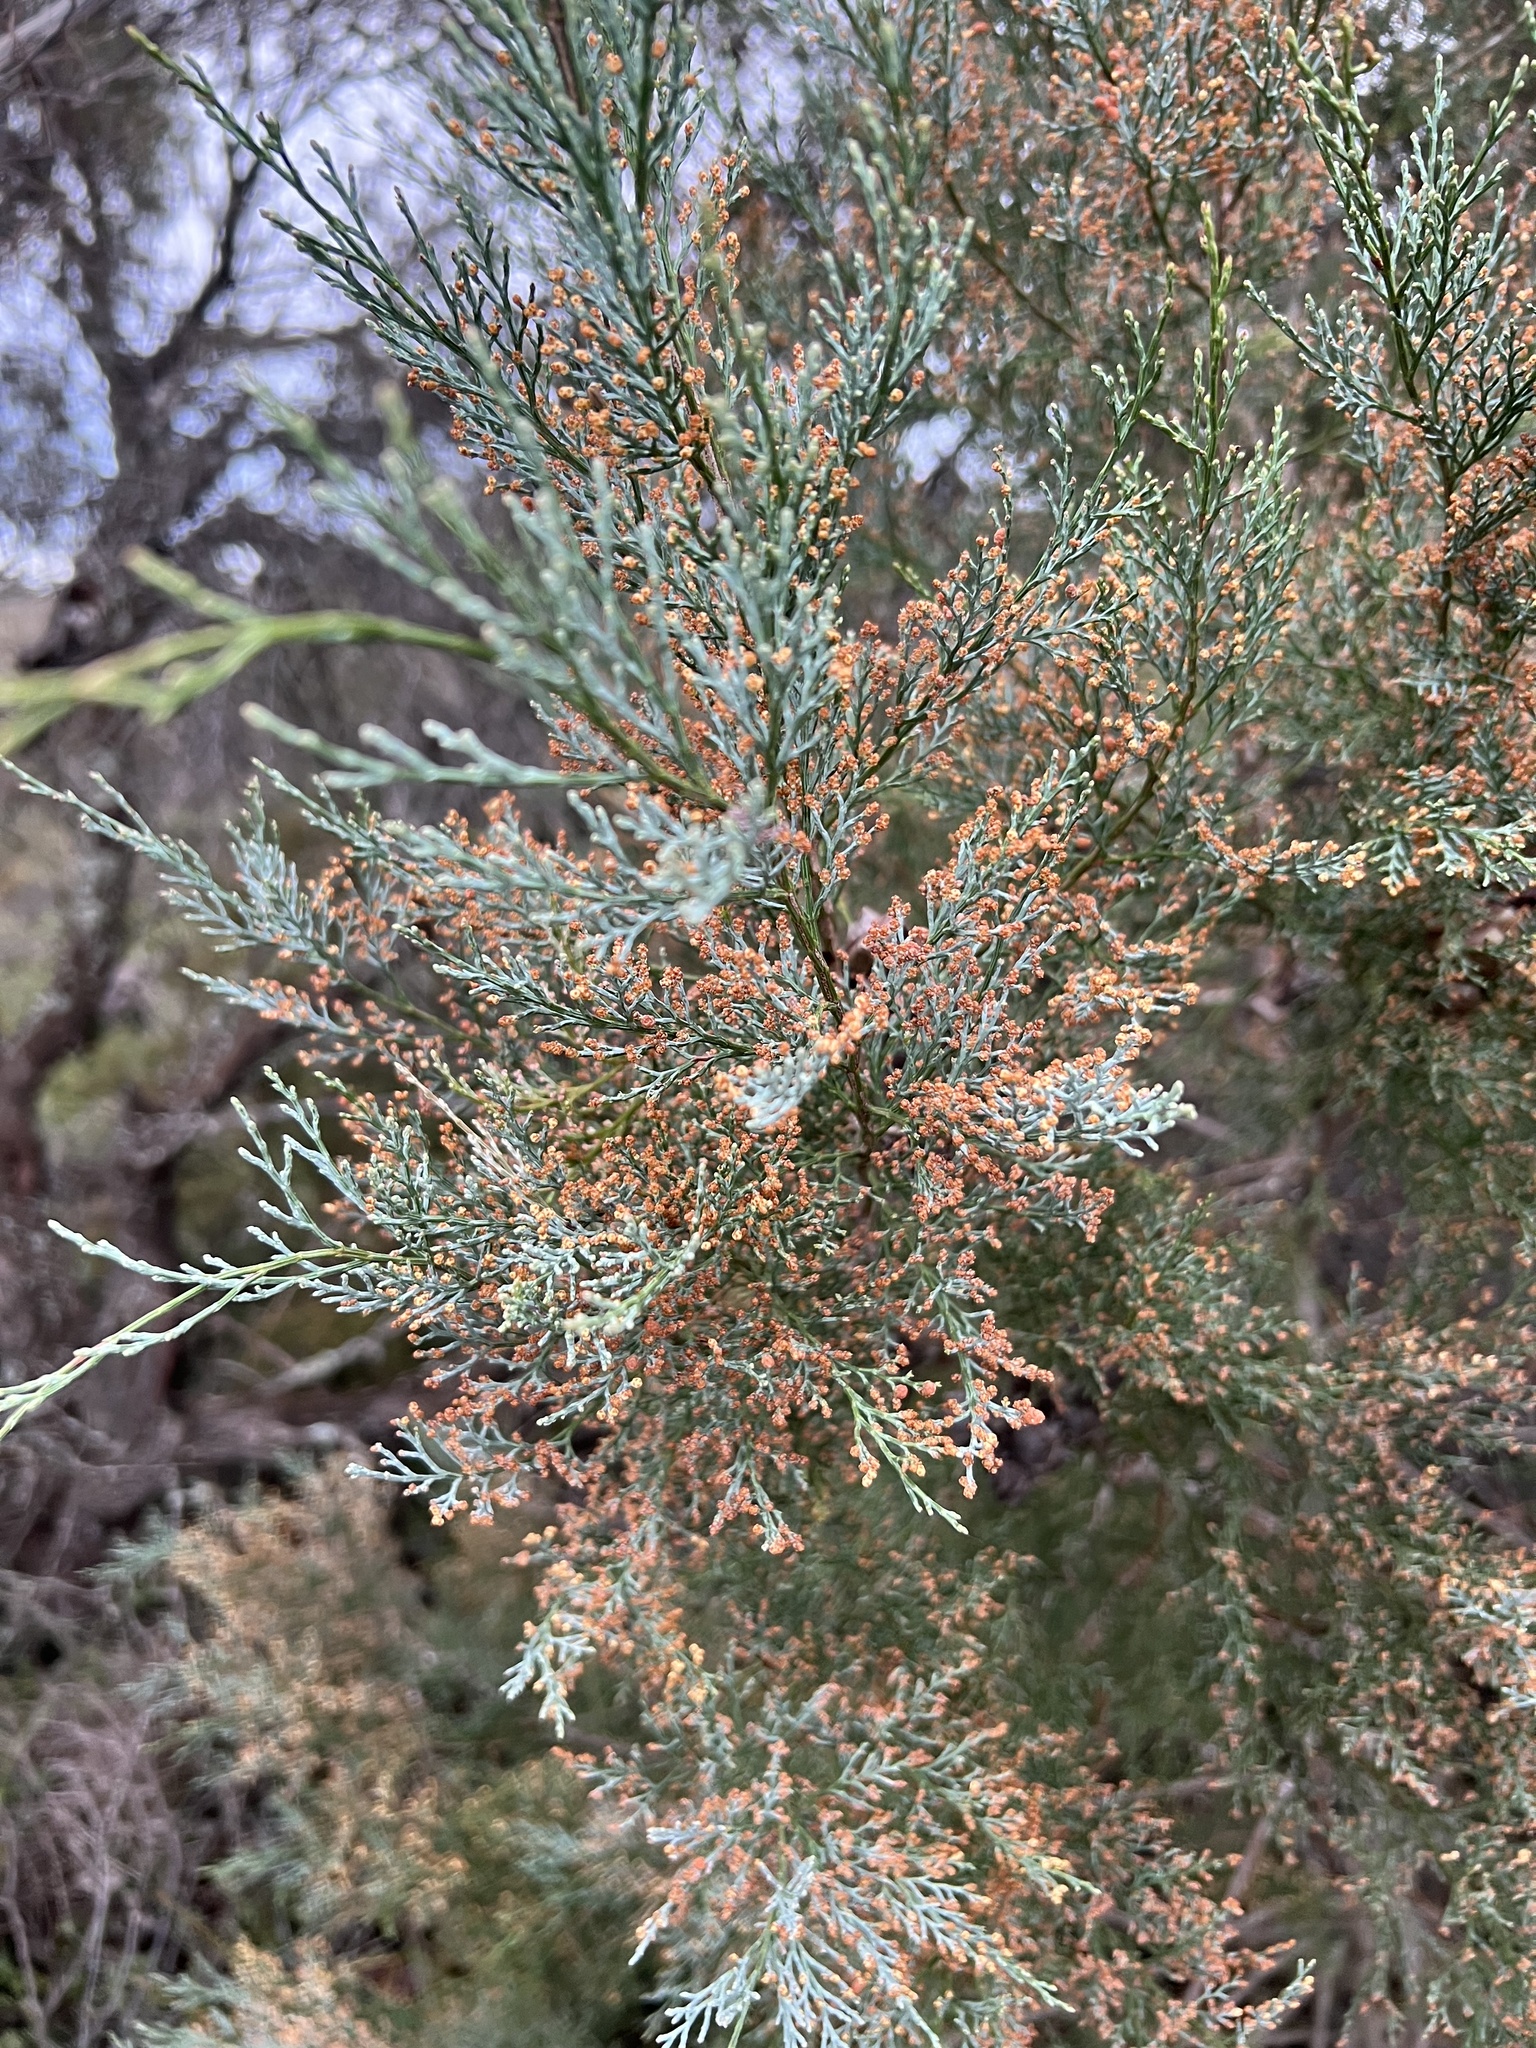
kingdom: Plantae
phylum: Tracheophyta
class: Pinopsida
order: Pinales
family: Cupressaceae
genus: Callitris
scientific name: Callitris rhomboidea
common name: Illawara mountain pine
